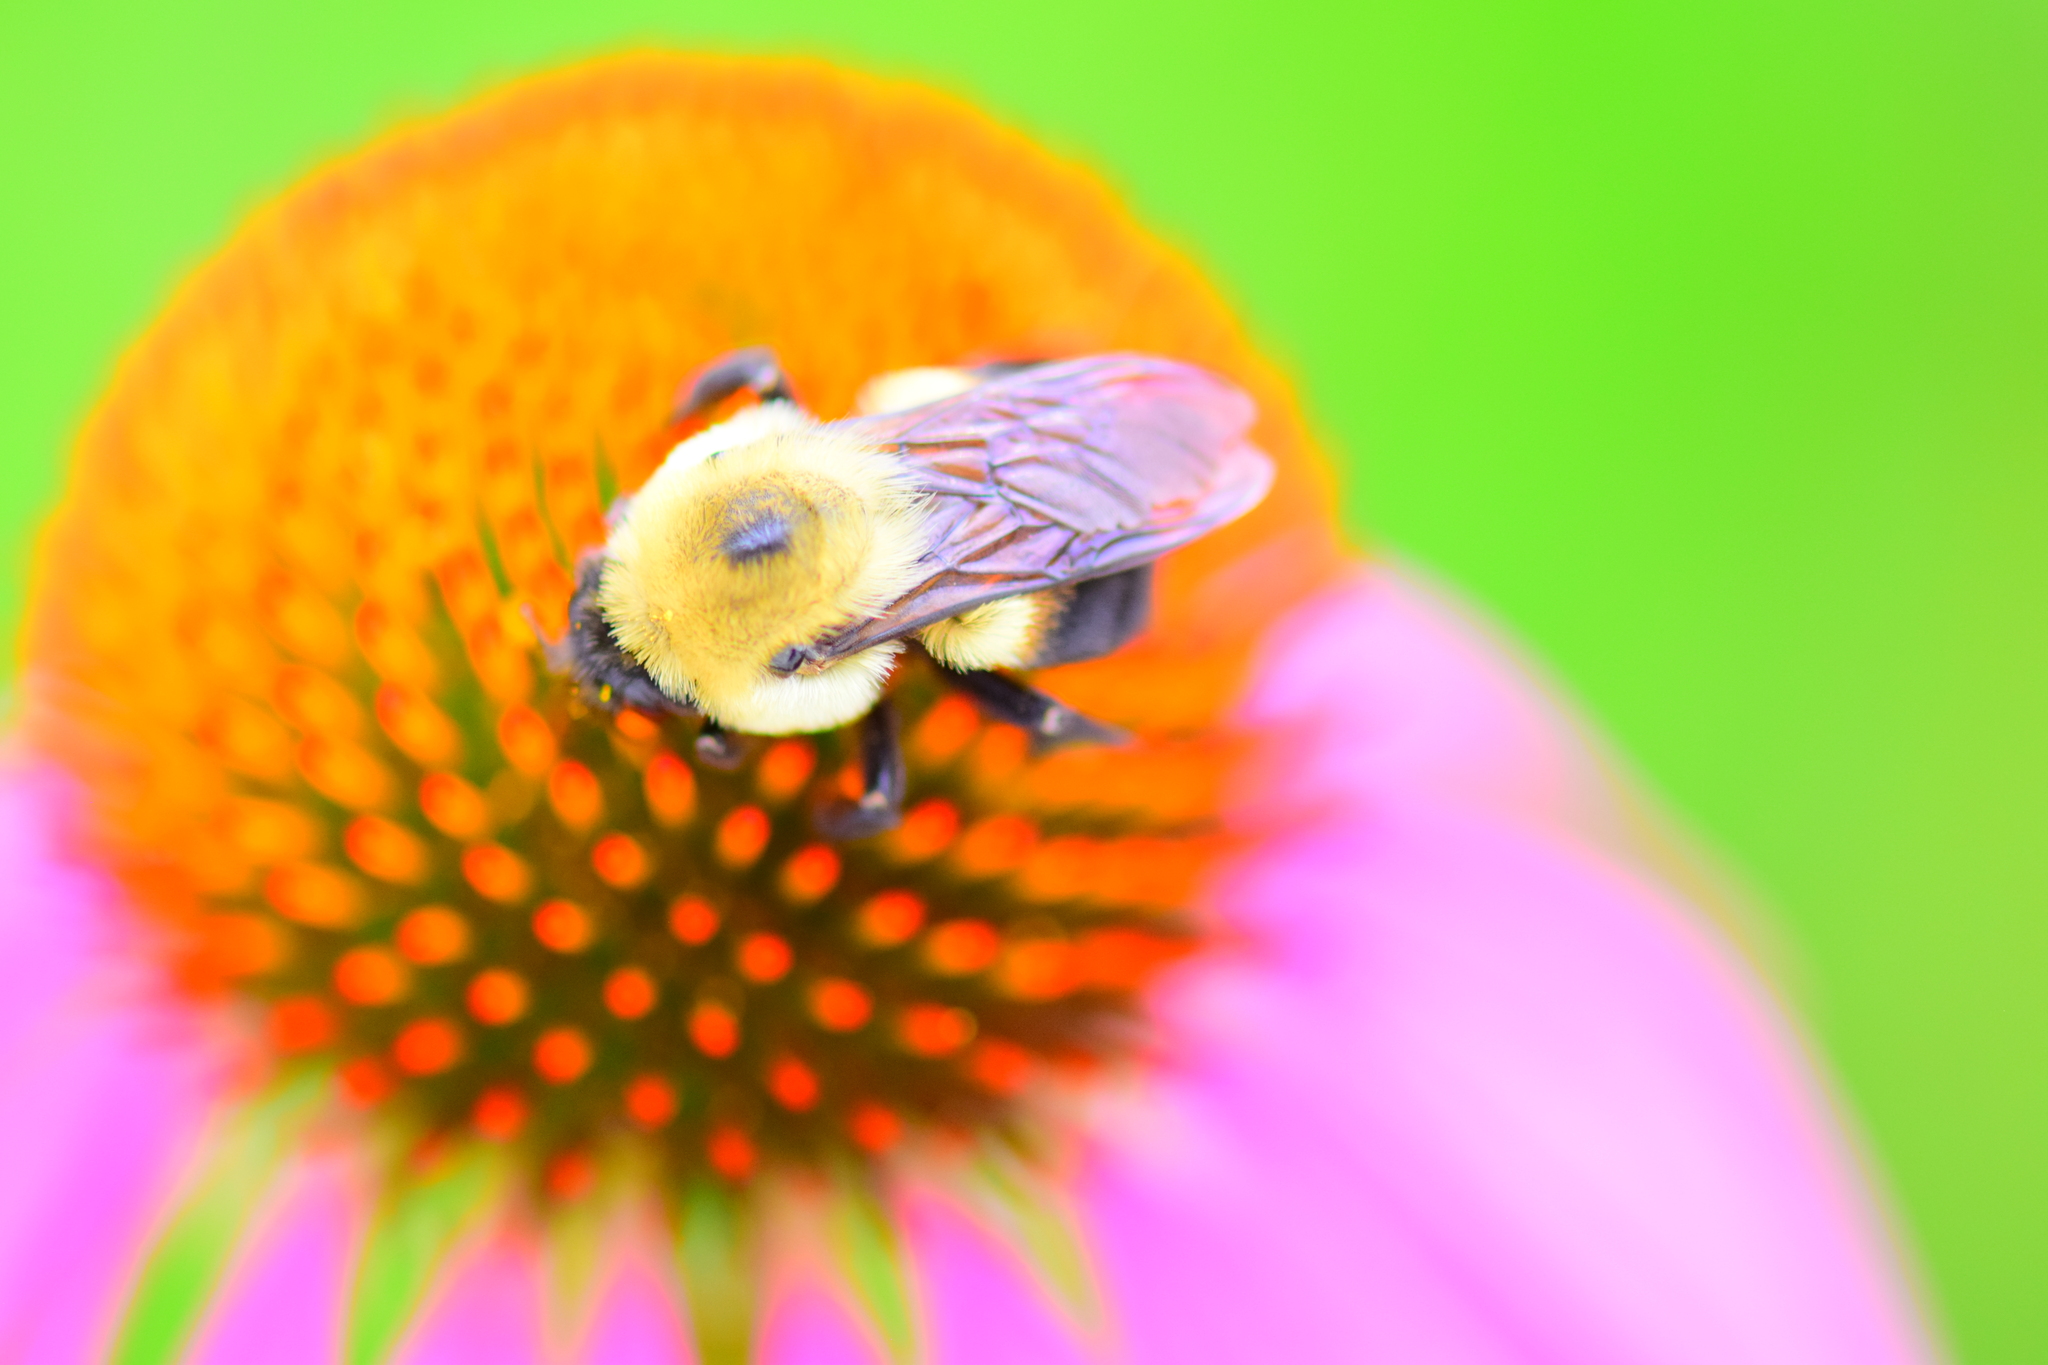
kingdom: Animalia
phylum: Arthropoda
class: Insecta
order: Hymenoptera
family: Apidae
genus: Bombus
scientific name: Bombus griseocollis
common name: Brown-belted bumble bee
